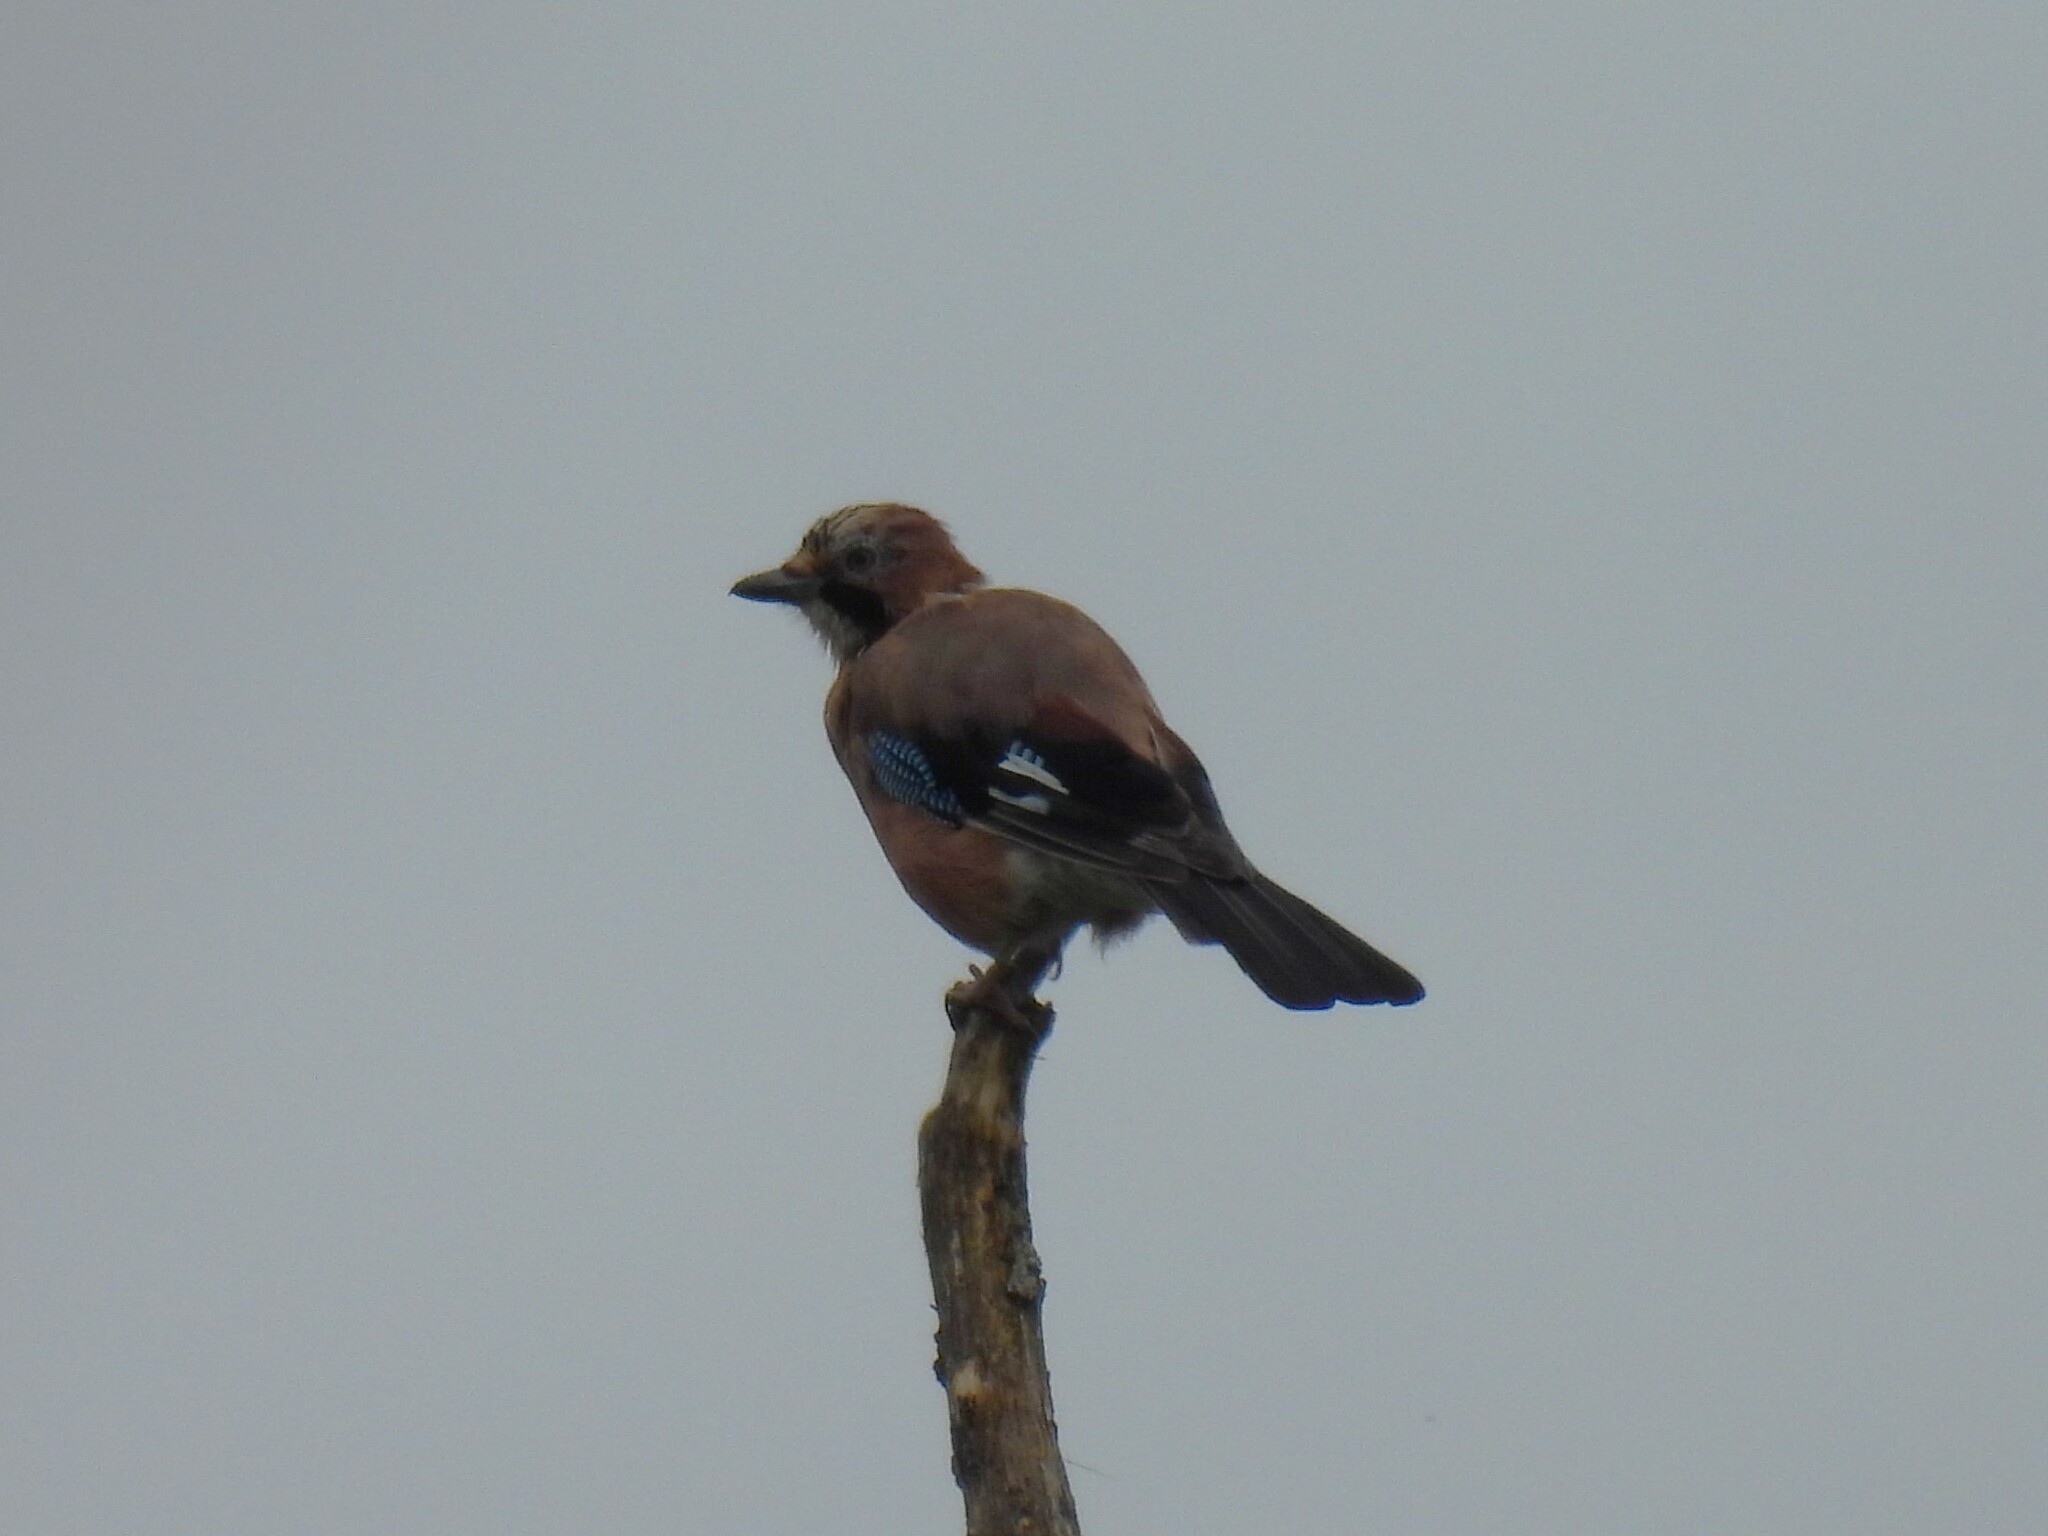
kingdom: Animalia
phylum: Chordata
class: Aves
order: Passeriformes
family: Corvidae
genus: Garrulus
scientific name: Garrulus glandarius
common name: Eurasian jay
